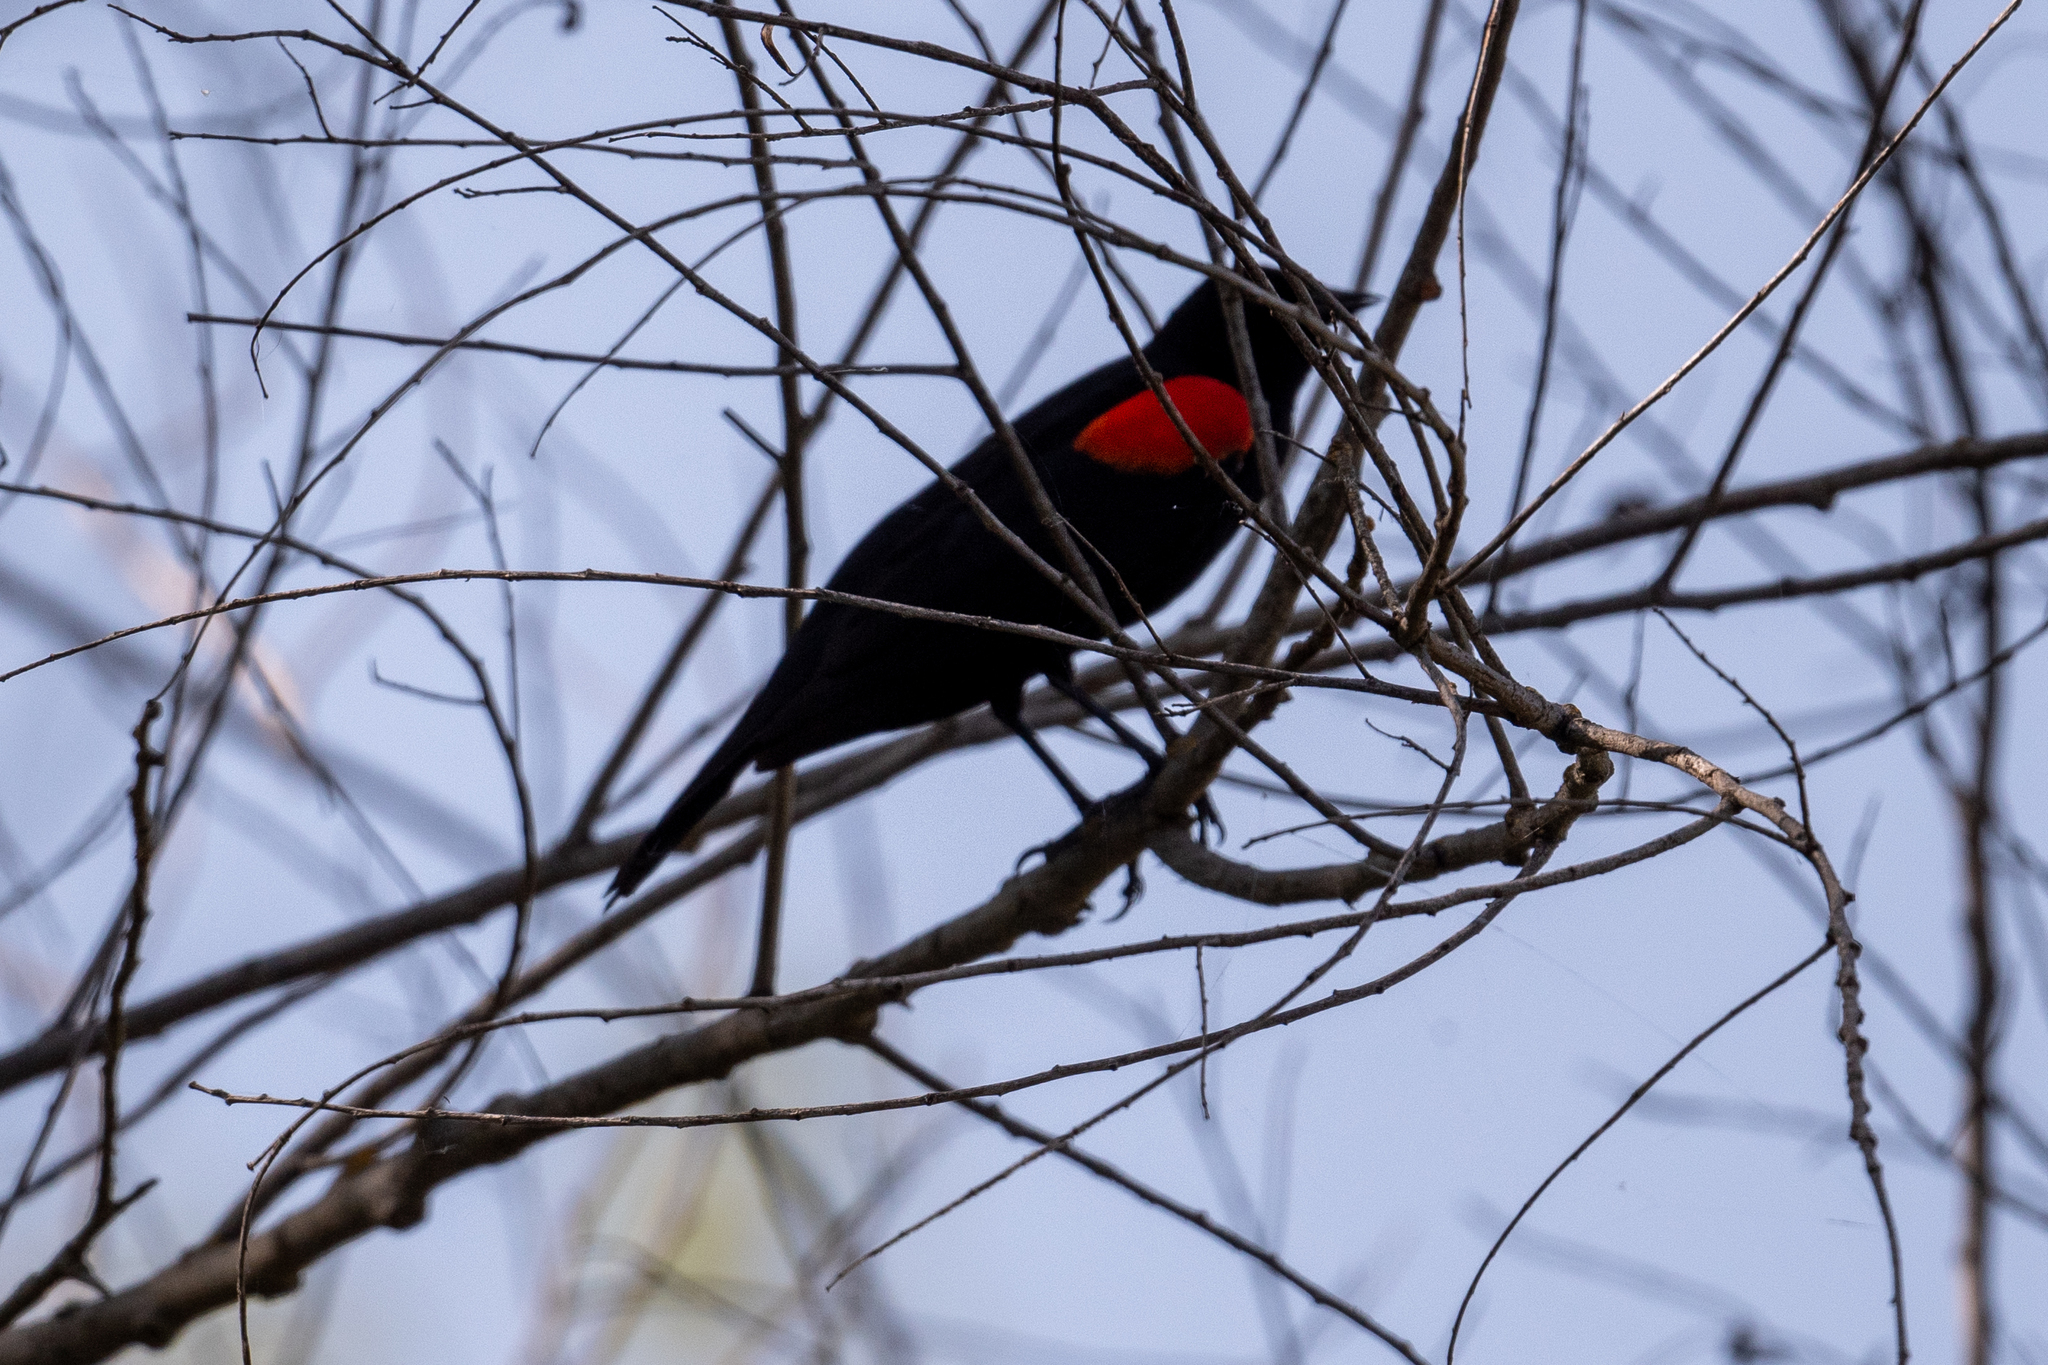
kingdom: Animalia
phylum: Chordata
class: Aves
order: Passeriformes
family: Icteridae
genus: Agelaius
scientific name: Agelaius phoeniceus
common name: Red-winged blackbird
